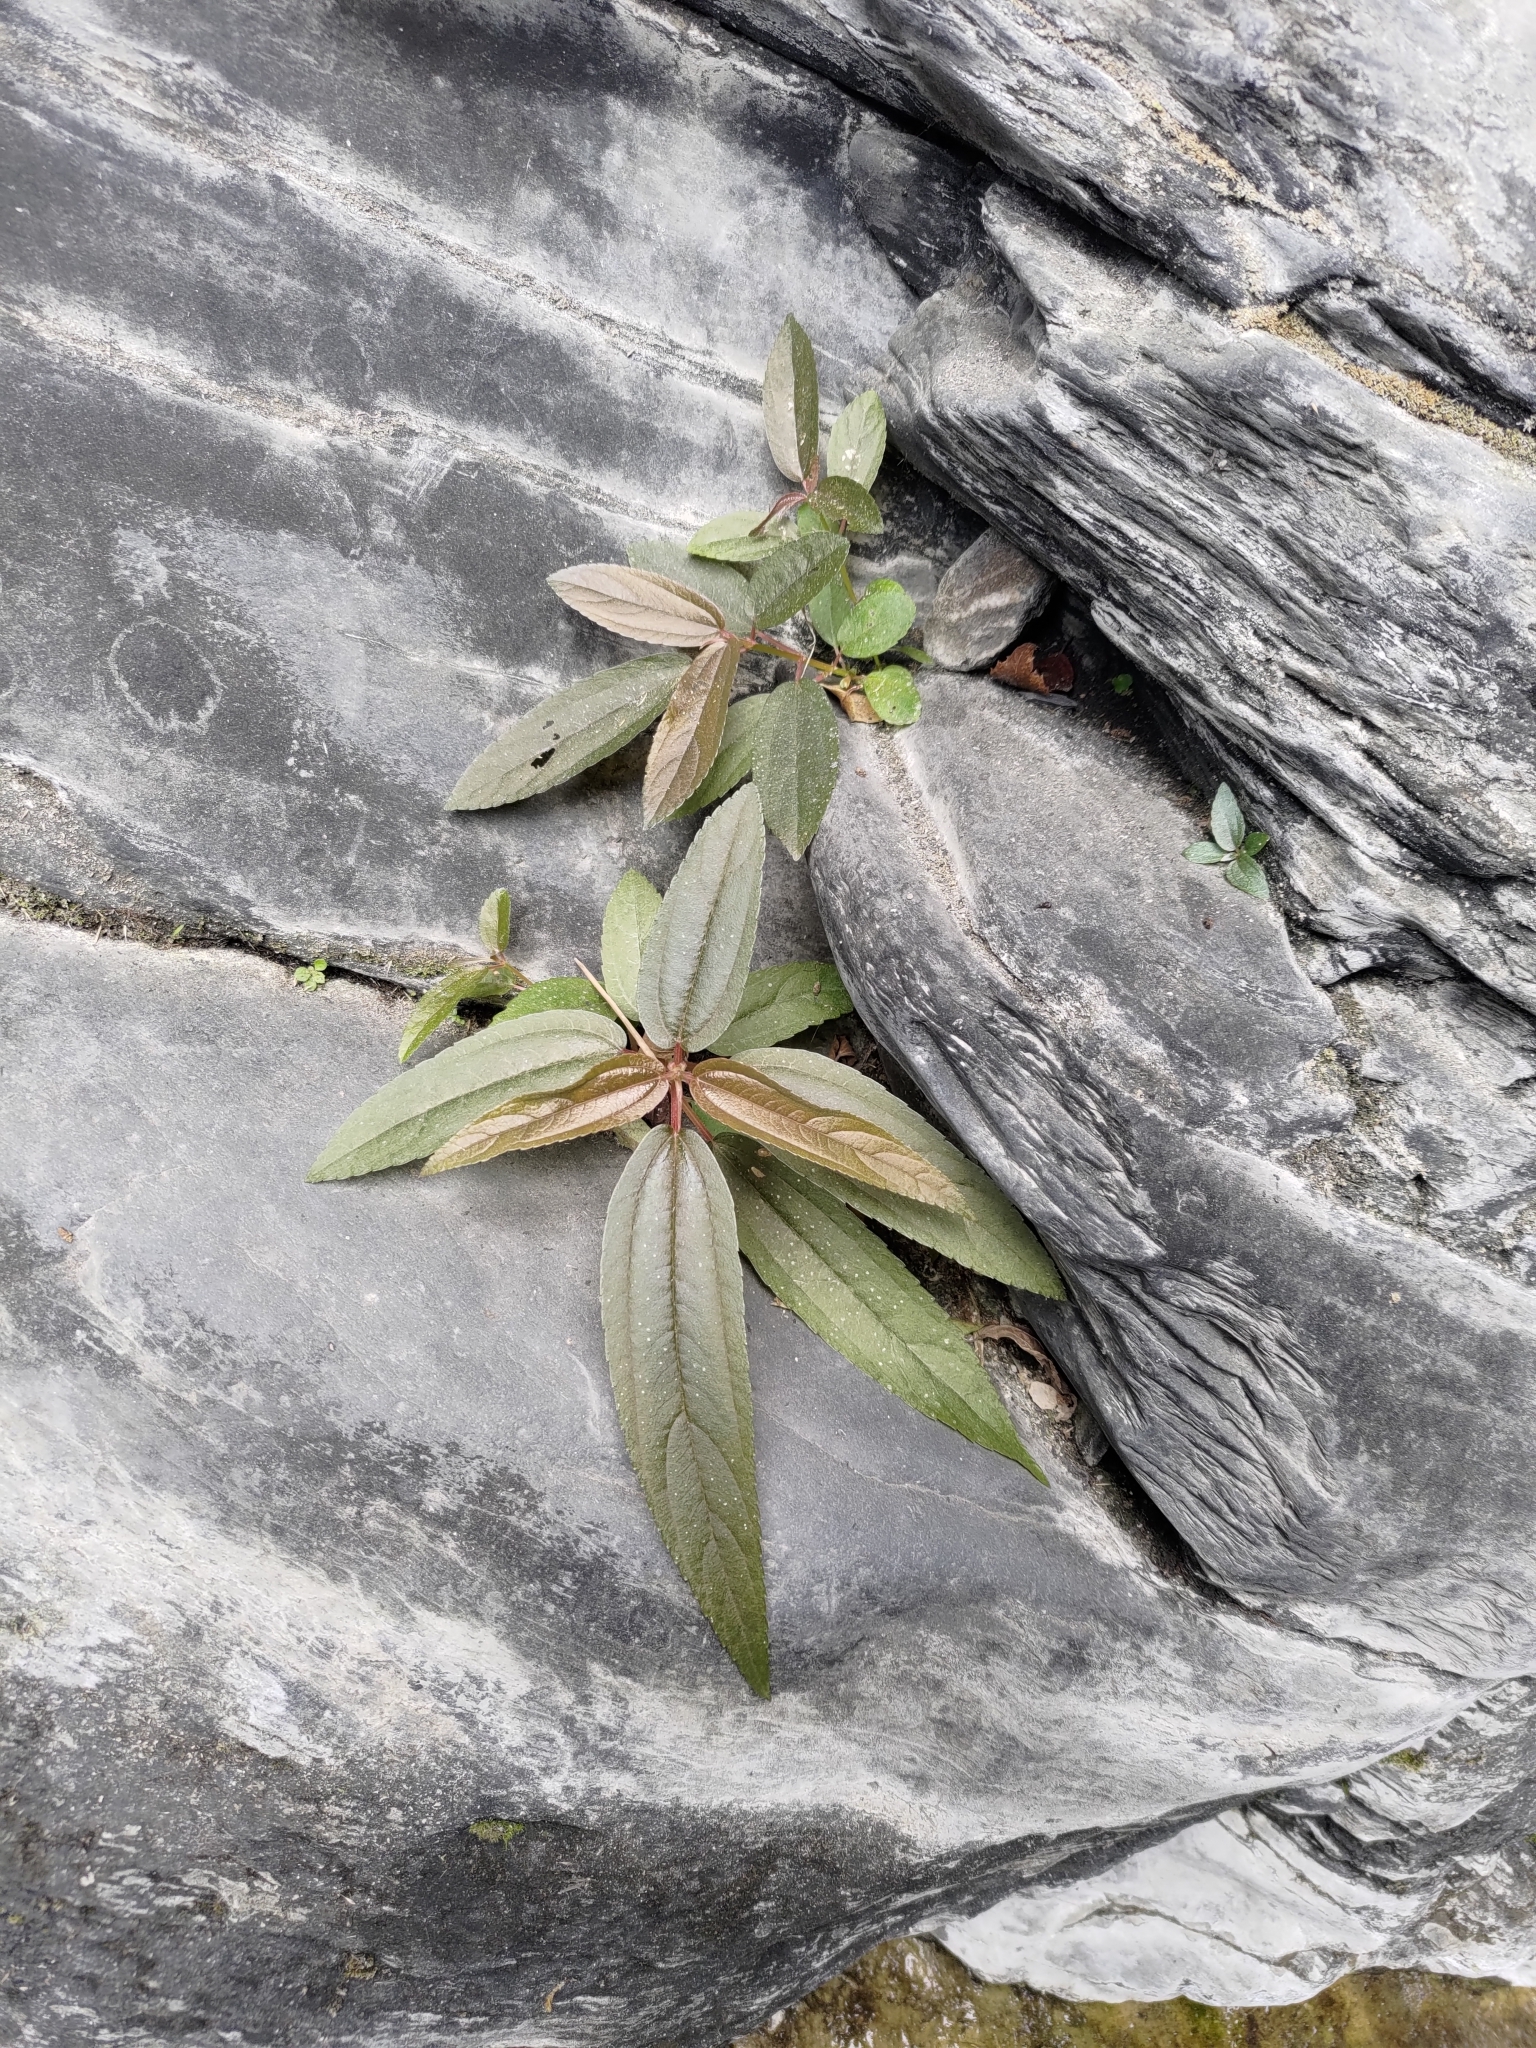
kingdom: Plantae
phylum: Tracheophyta
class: Magnoliopsida
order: Rosales
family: Urticaceae
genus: Boehmeria
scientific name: Boehmeria densiflora
